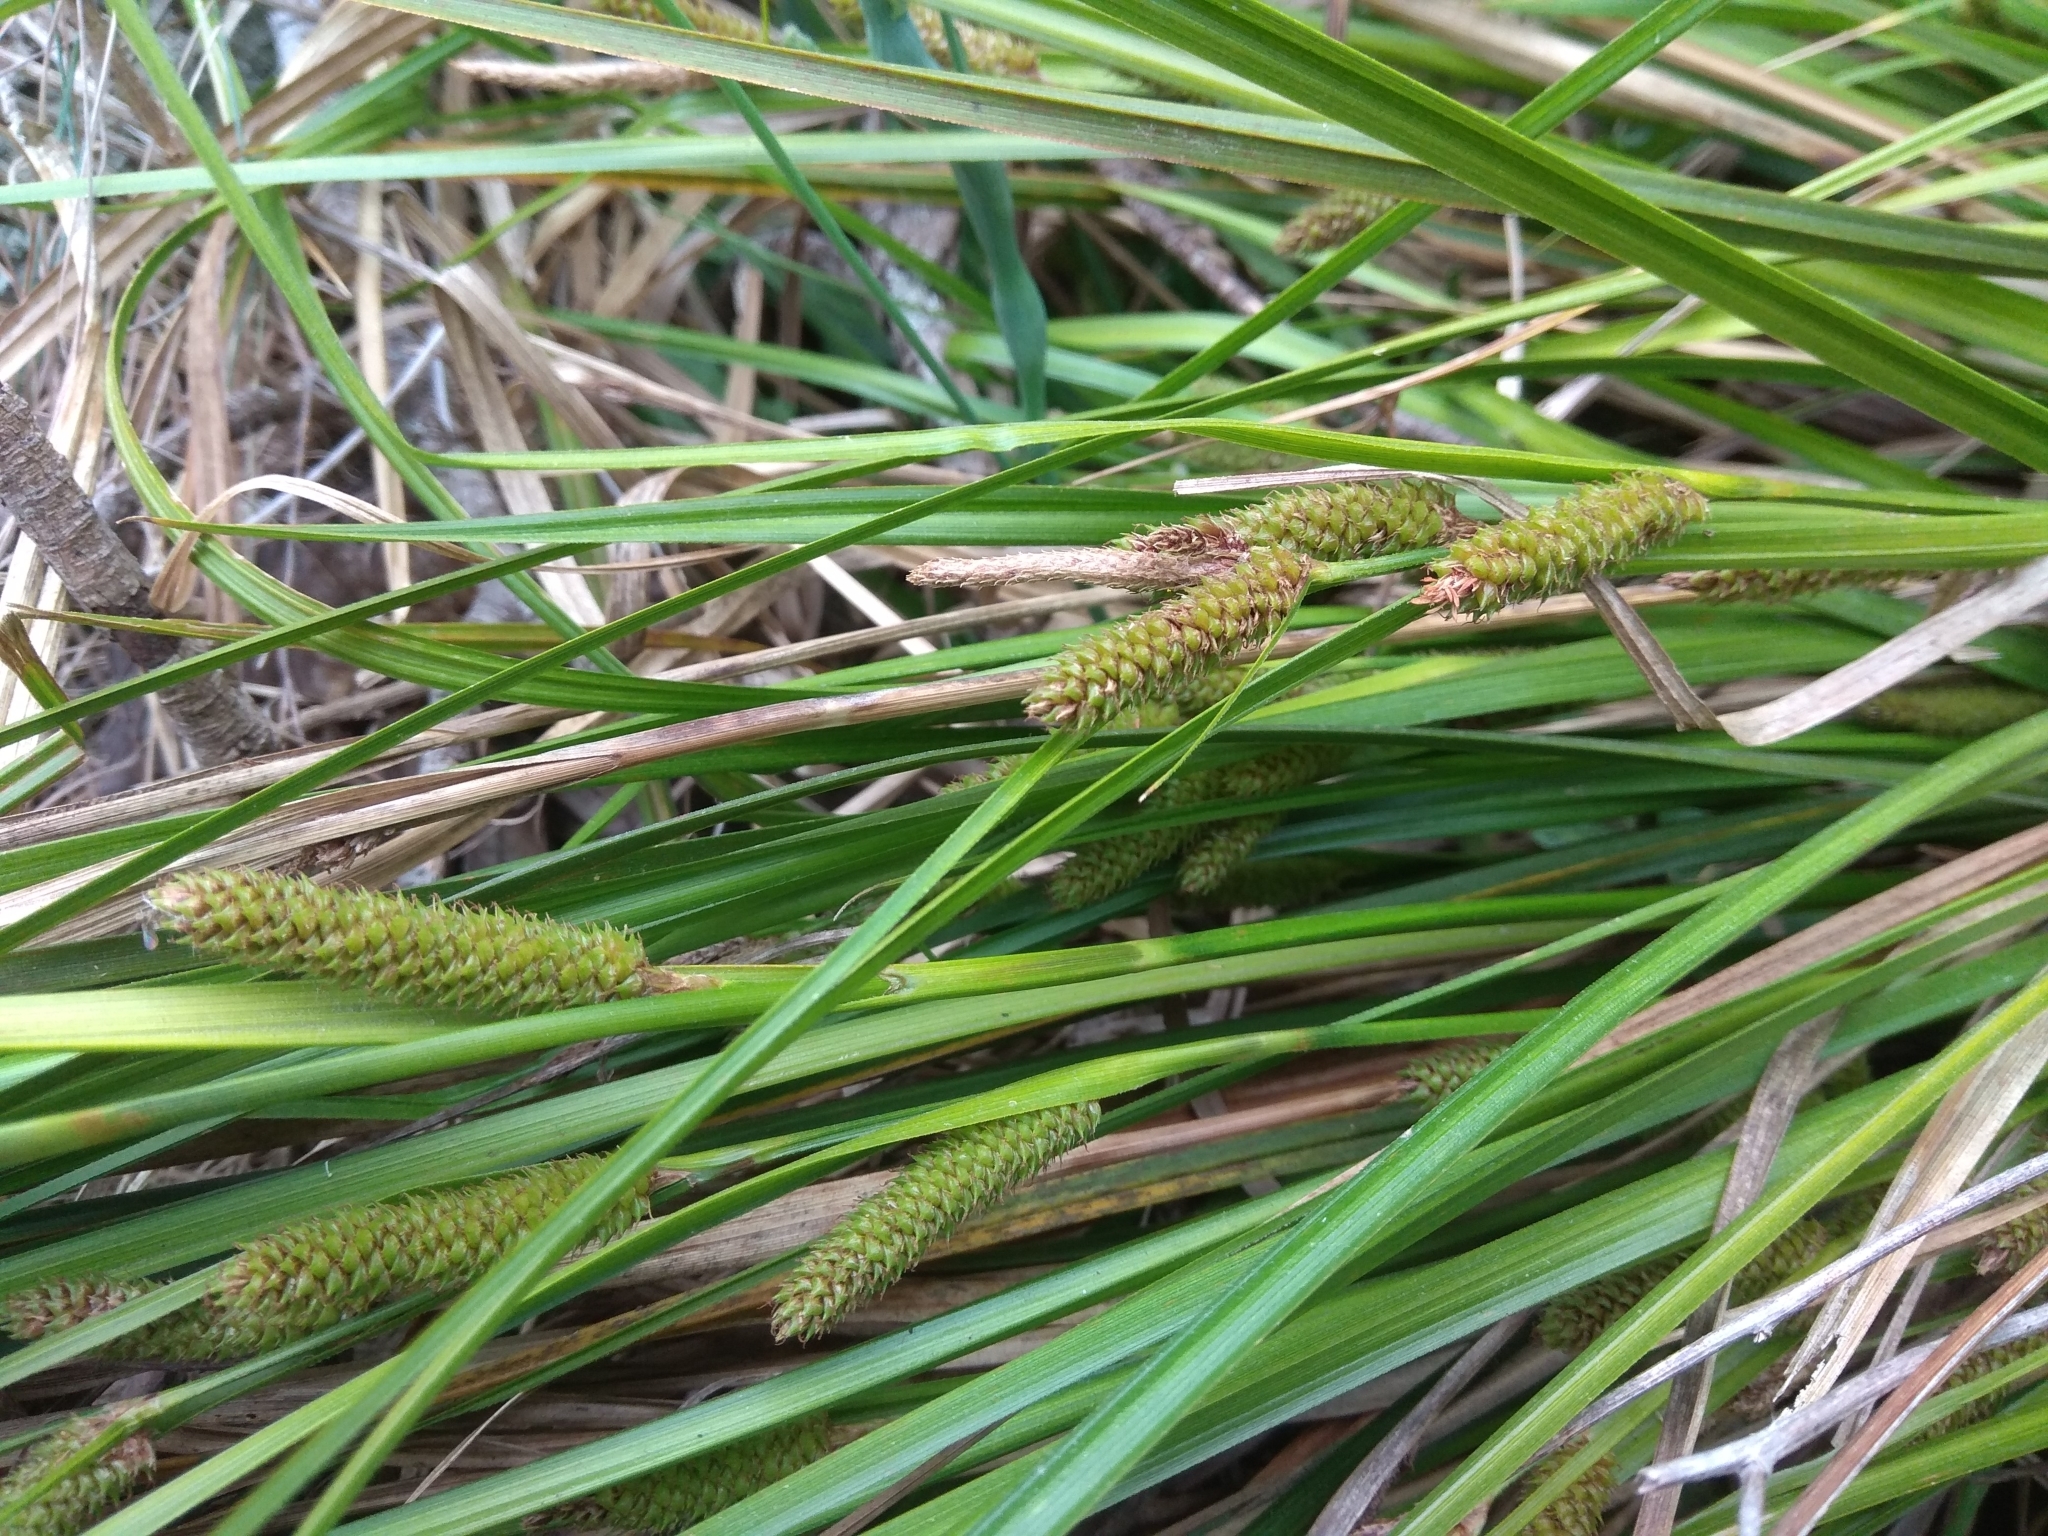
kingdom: Plantae
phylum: Tracheophyta
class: Liliopsida
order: Poales
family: Cyperaceae
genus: Carex
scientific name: Carex goyenii
